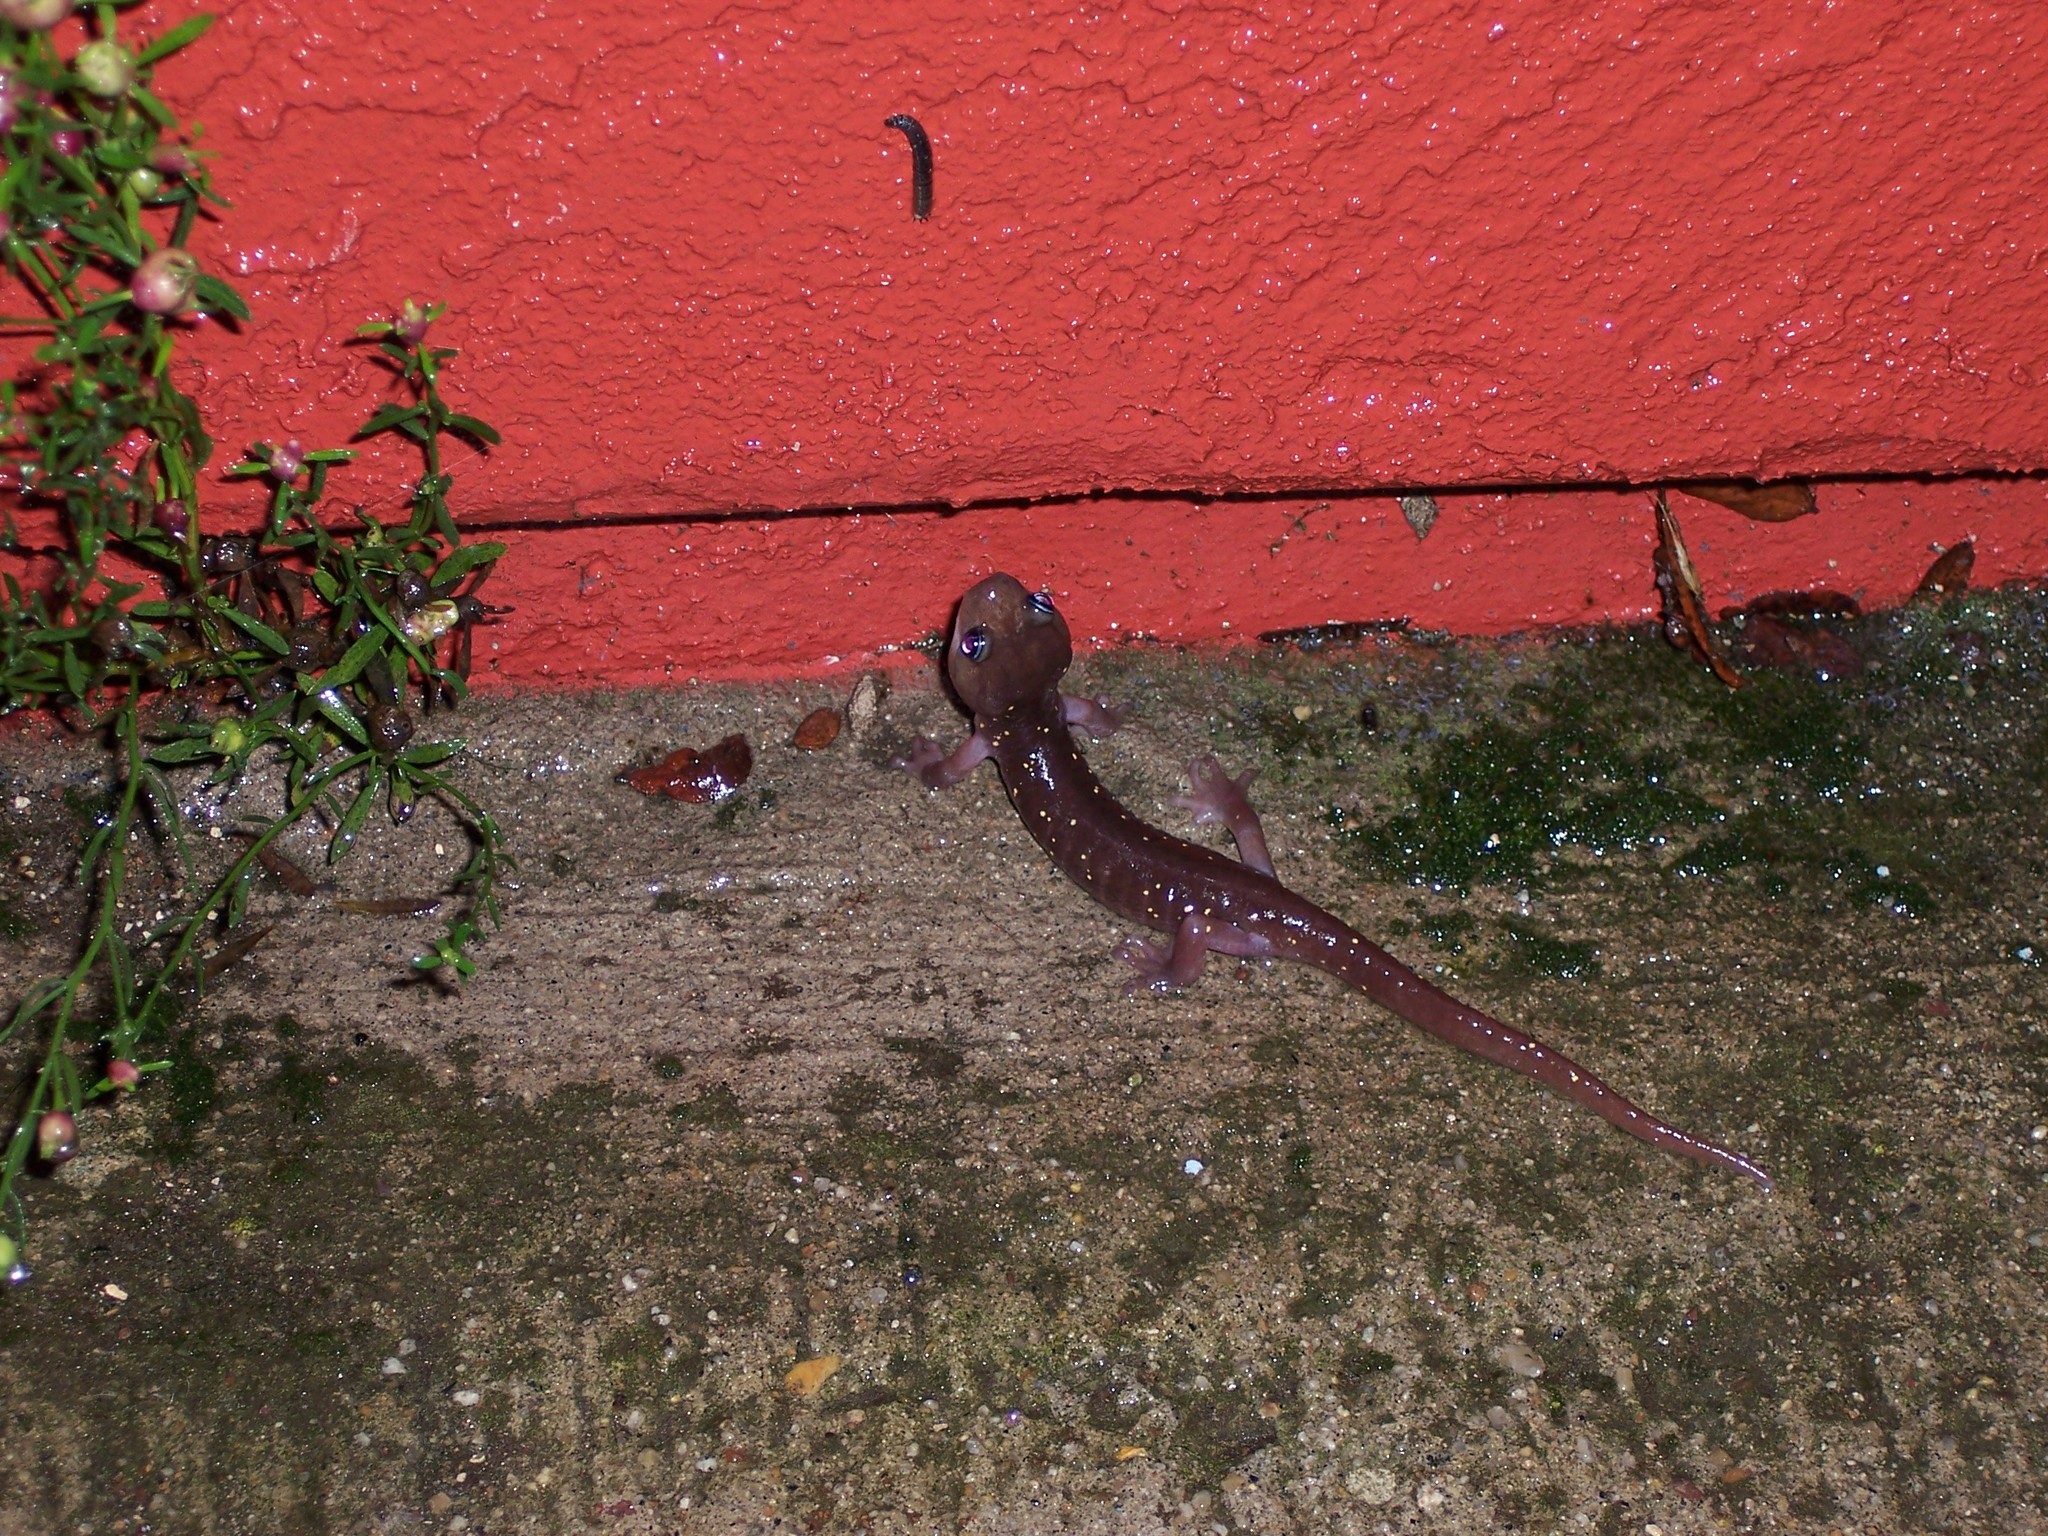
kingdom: Animalia
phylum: Chordata
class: Amphibia
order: Caudata
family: Plethodontidae
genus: Aneides
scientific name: Aneides lugubris
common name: Arboreal salamander
